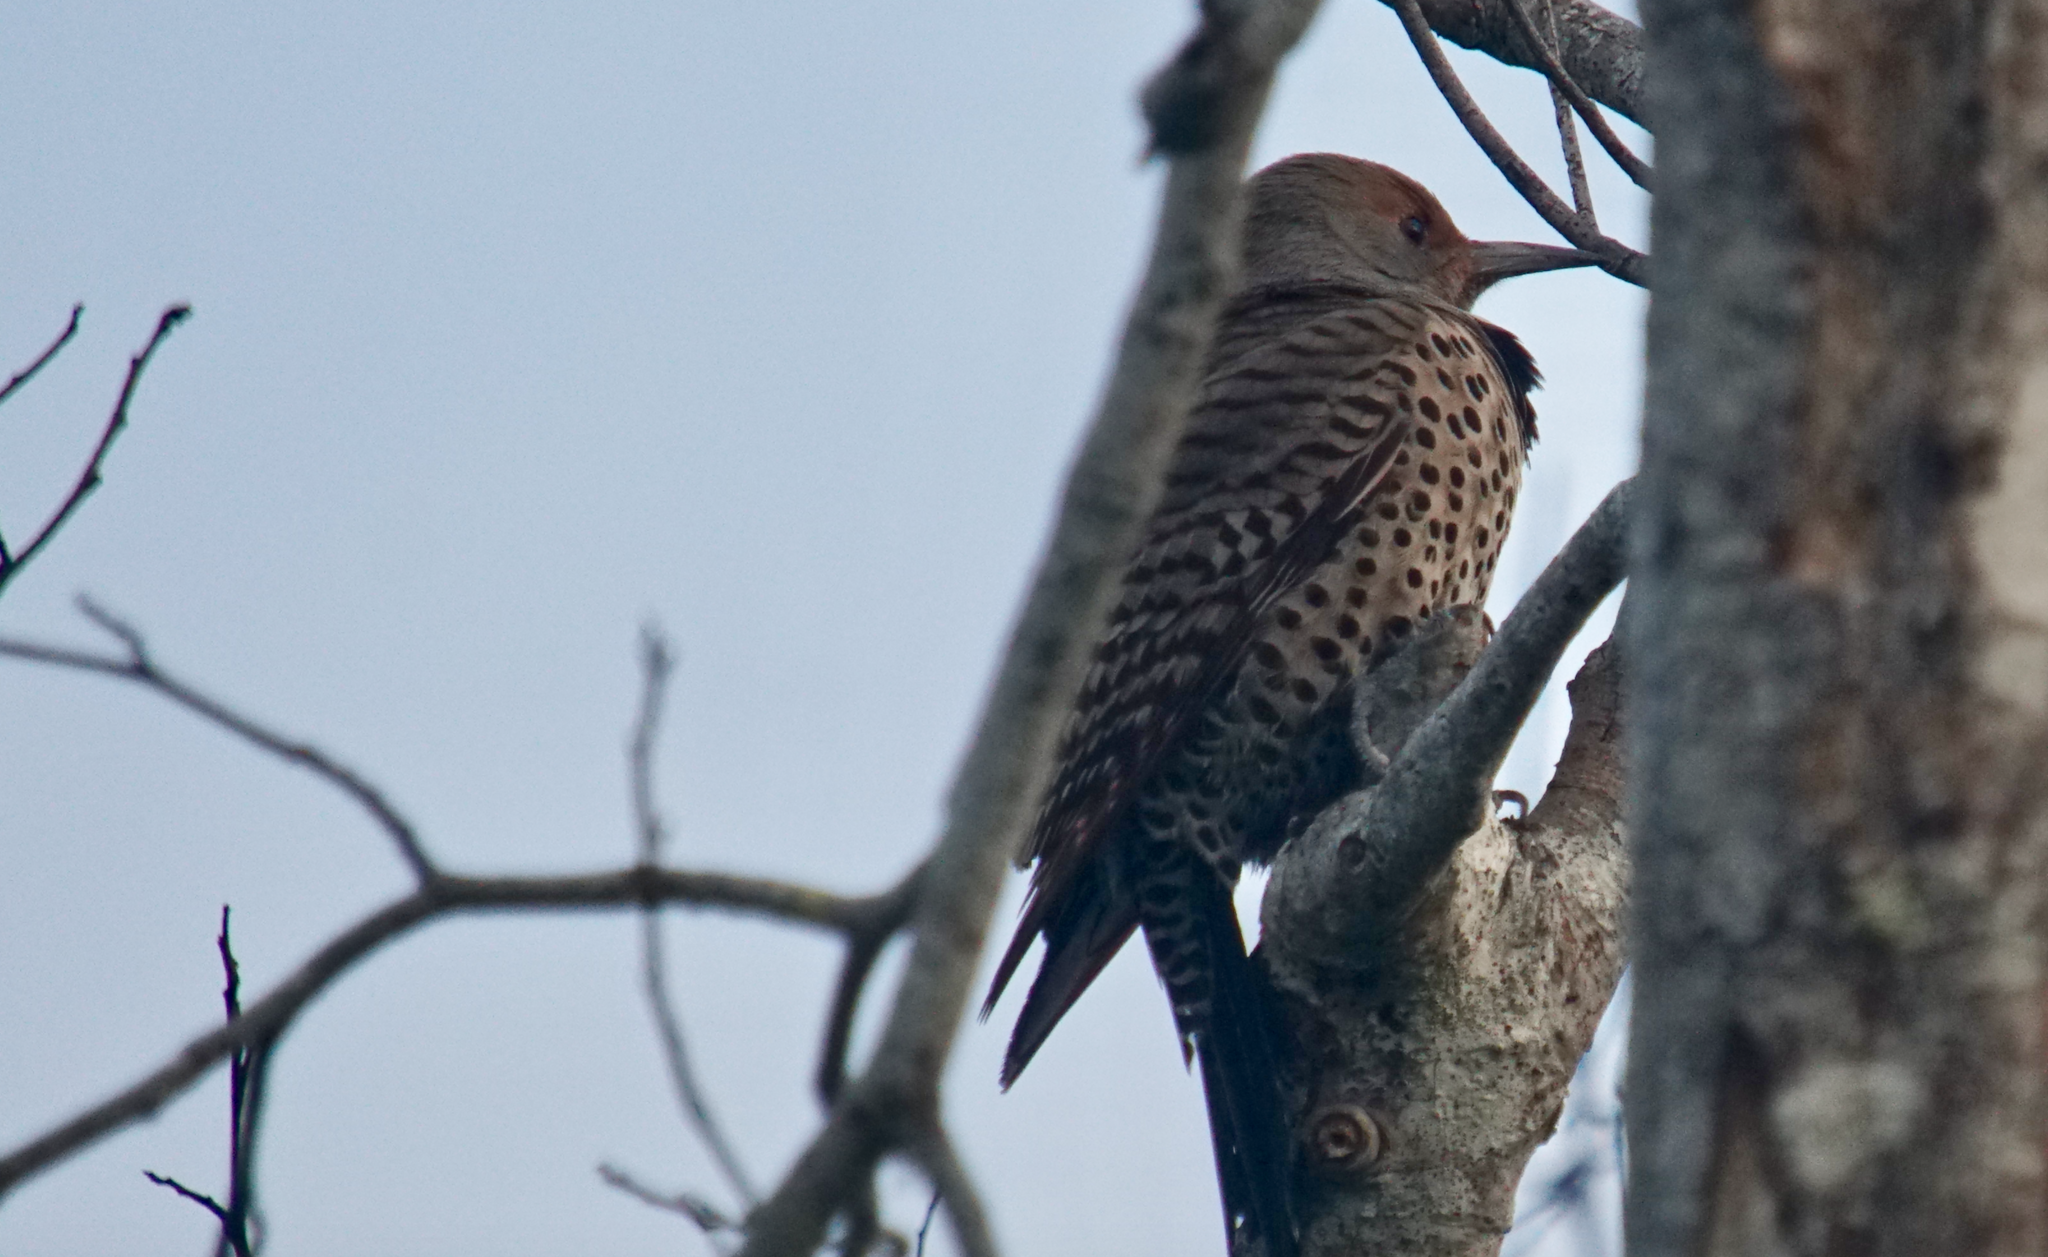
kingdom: Animalia
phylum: Chordata
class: Aves
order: Piciformes
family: Picidae
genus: Colaptes
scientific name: Colaptes auratus
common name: Northern flicker
